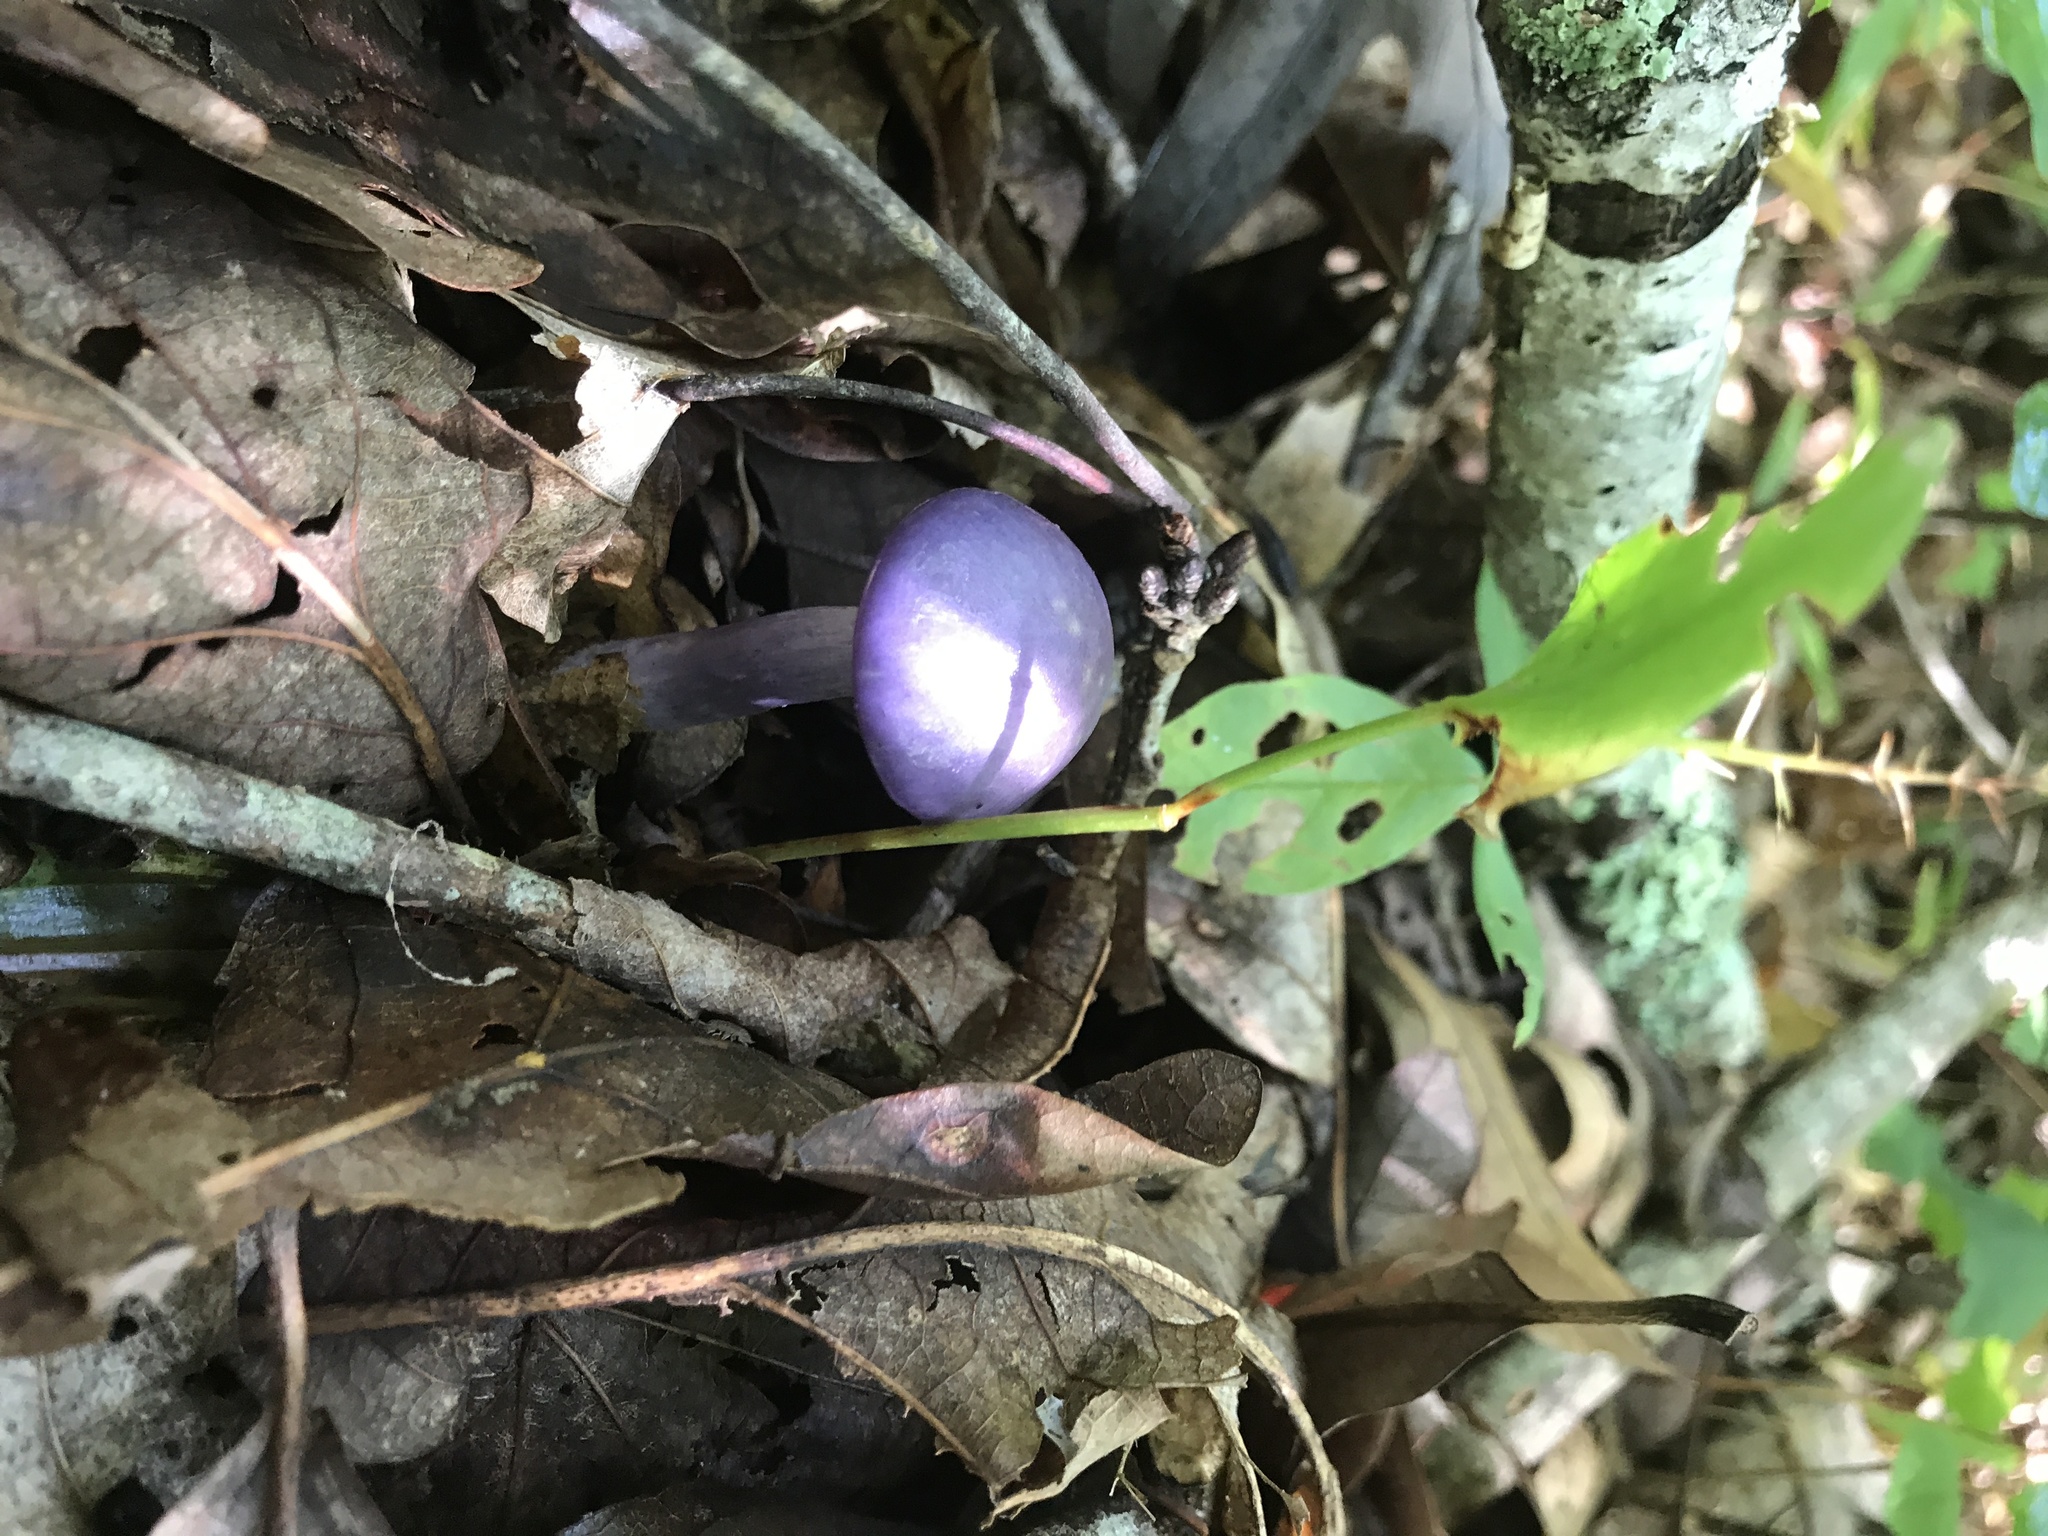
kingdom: Fungi
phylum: Basidiomycota
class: Agaricomycetes
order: Agaricales
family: Cortinariaceae
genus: Cortinarius
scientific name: Cortinarius iodes
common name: Viscid violet cort
